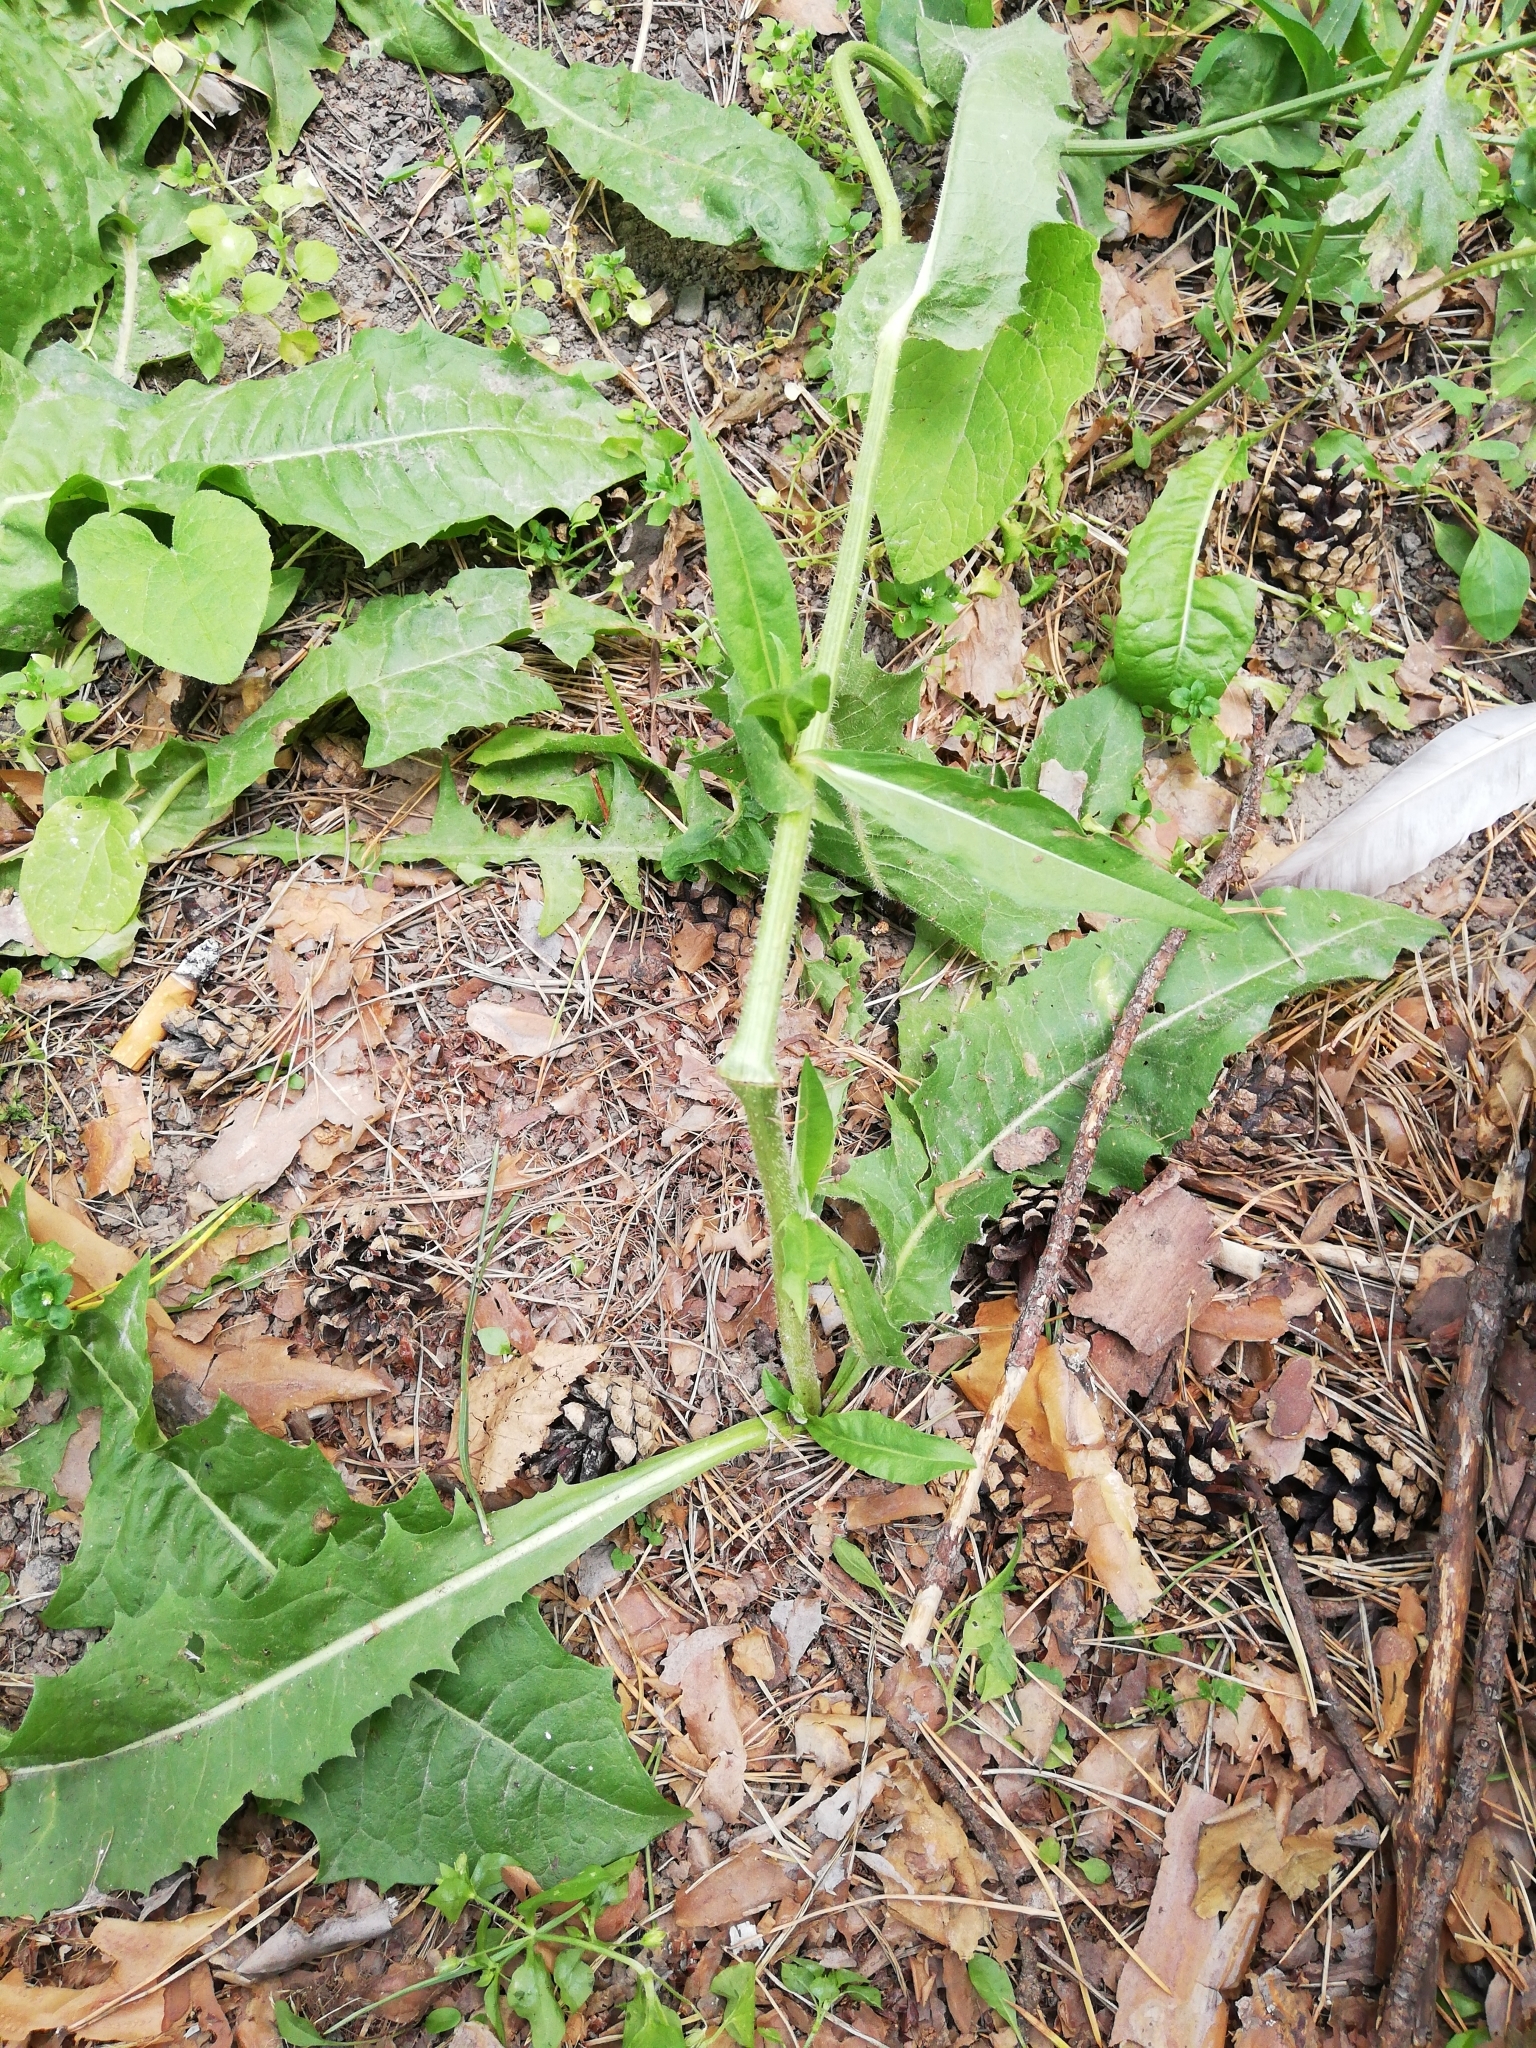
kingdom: Plantae
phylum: Tracheophyta
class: Magnoliopsida
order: Asterales
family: Asteraceae
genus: Cichorium
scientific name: Cichorium intybus
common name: Chicory
